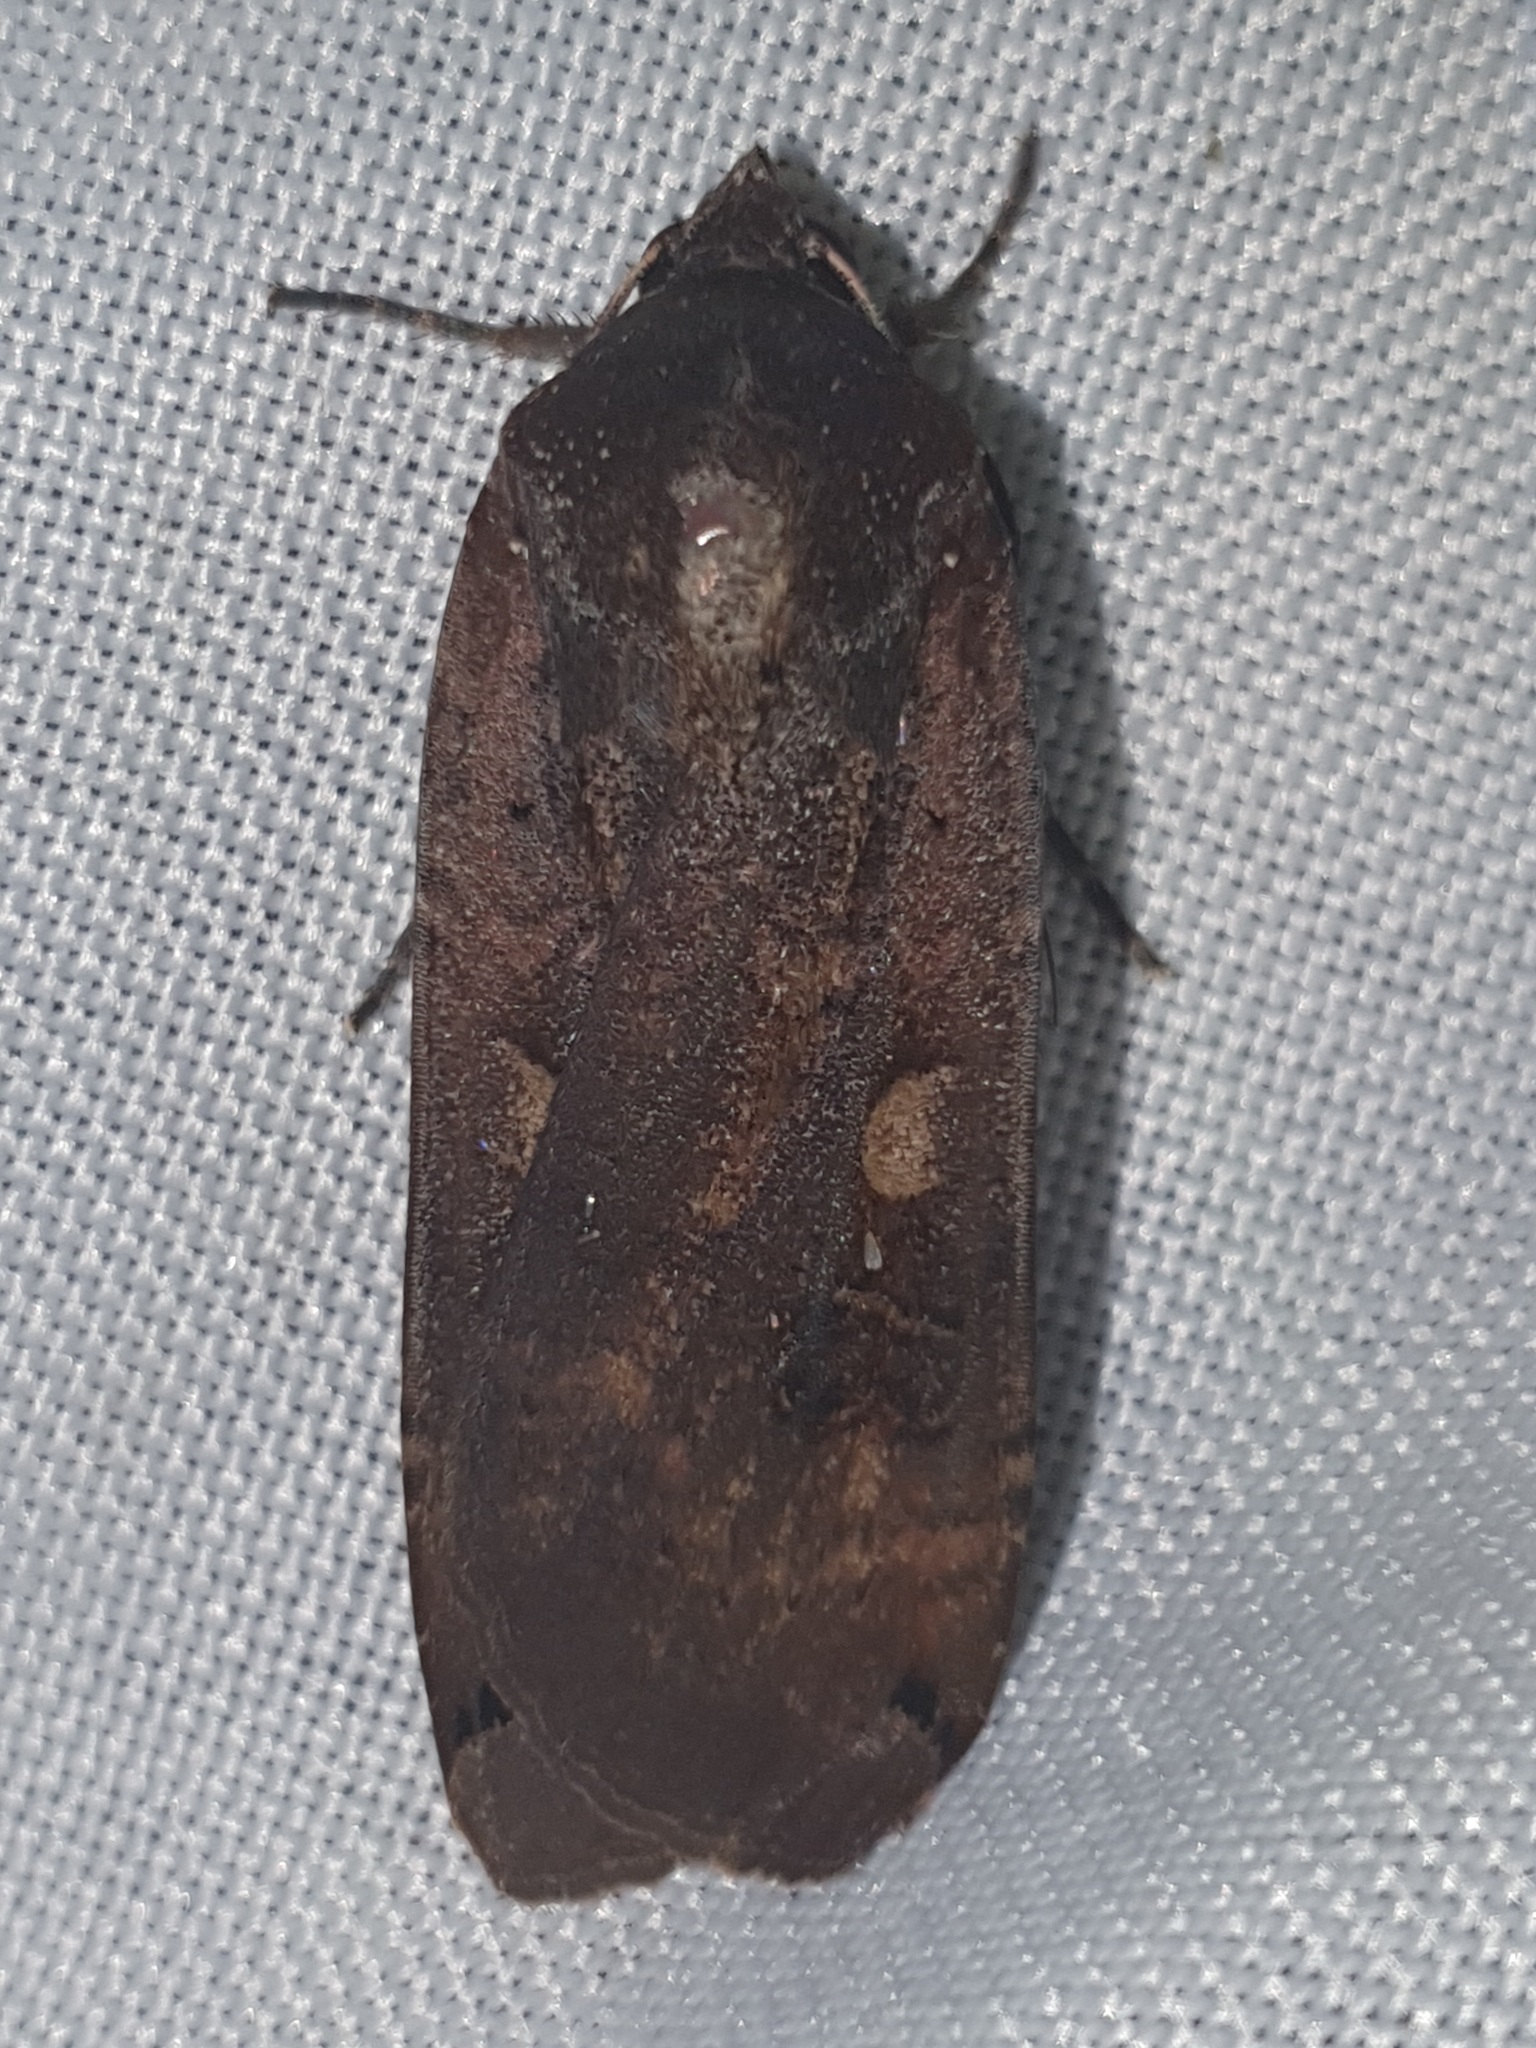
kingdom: Animalia
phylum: Arthropoda
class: Insecta
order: Lepidoptera
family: Noctuidae
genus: Noctua
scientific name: Noctua pronuba
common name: Large yellow underwing
